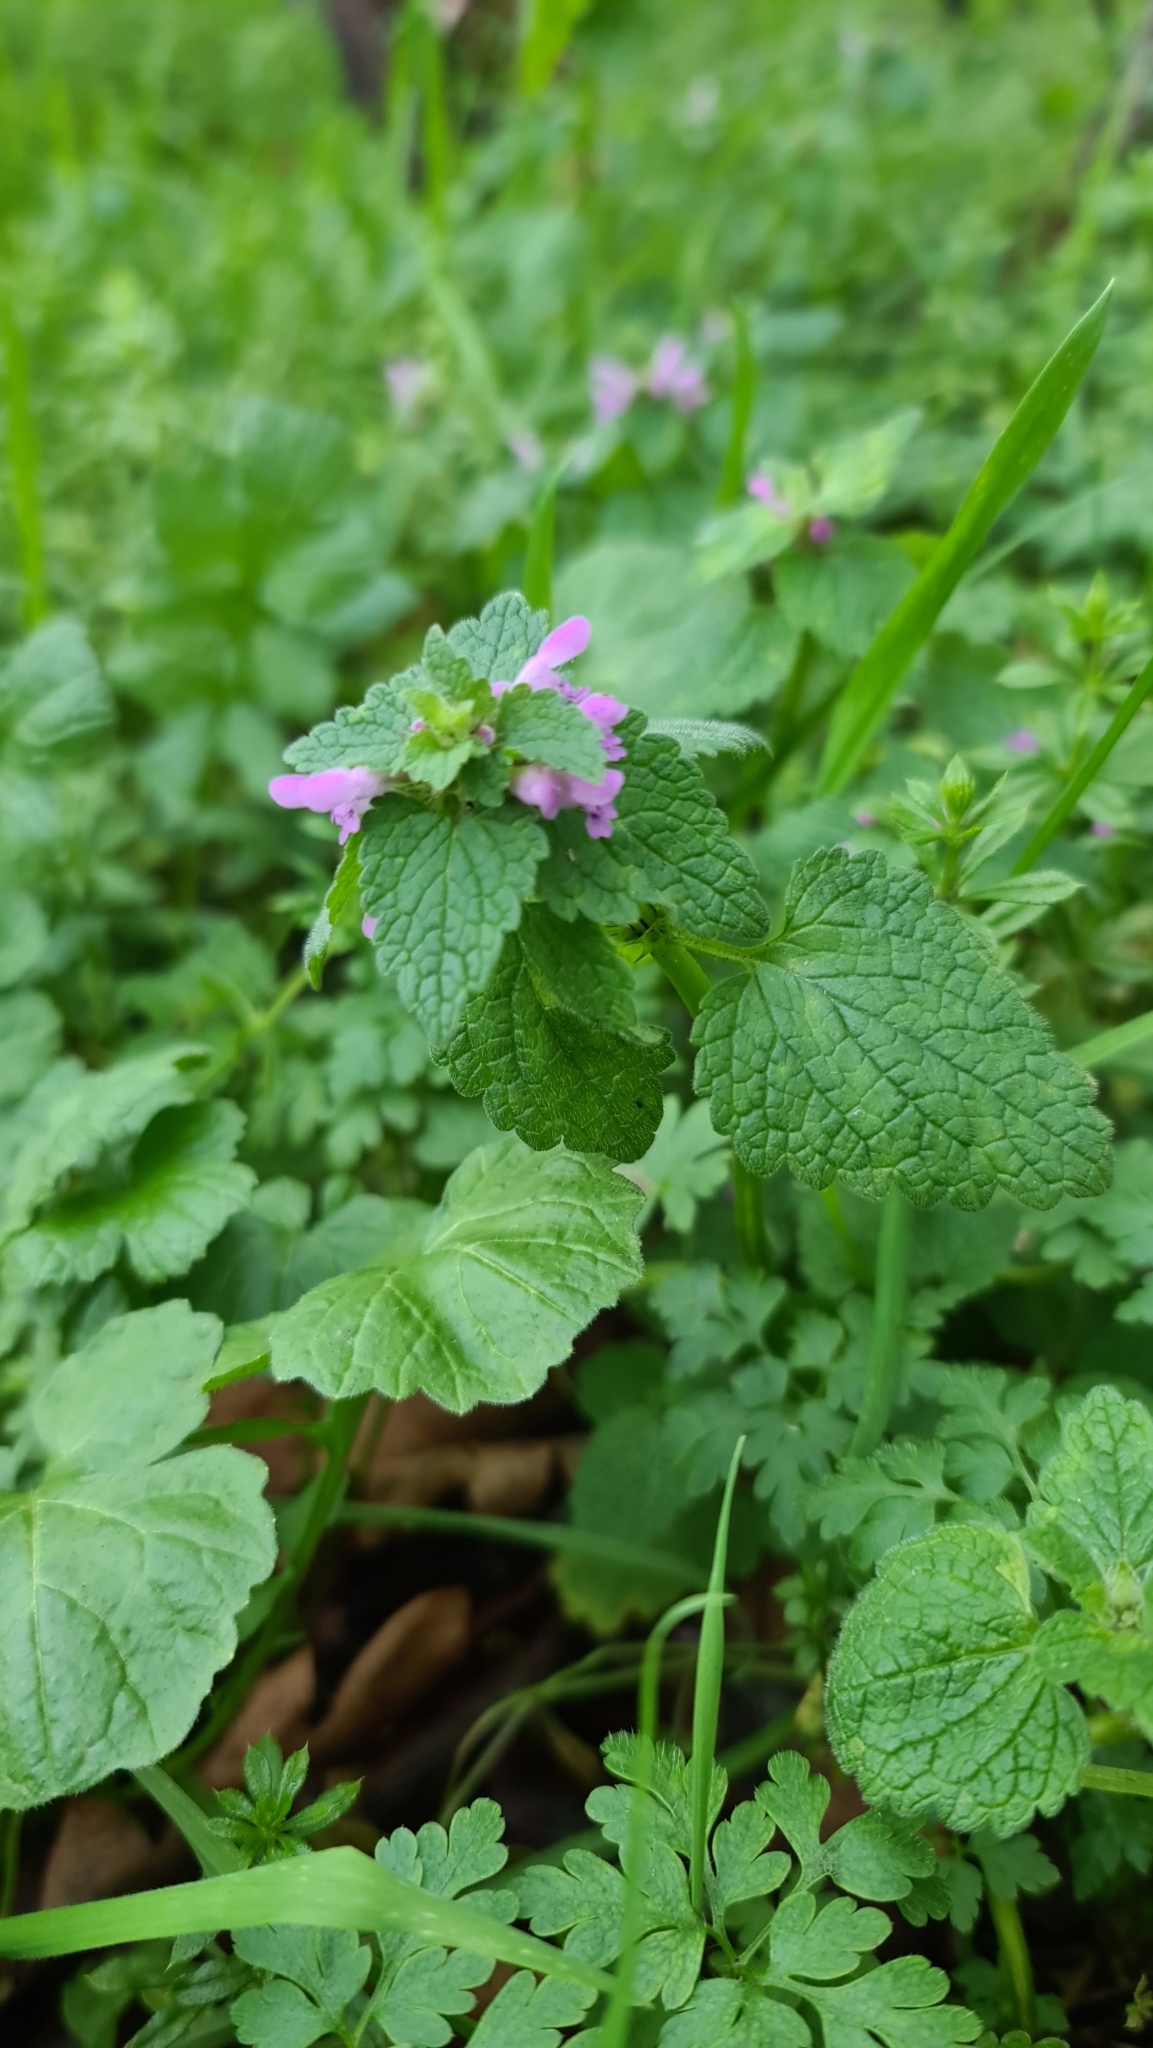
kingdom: Plantae
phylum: Tracheophyta
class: Magnoliopsida
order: Lamiales
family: Lamiaceae
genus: Lamium
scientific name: Lamium purpureum
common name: Red dead-nettle
